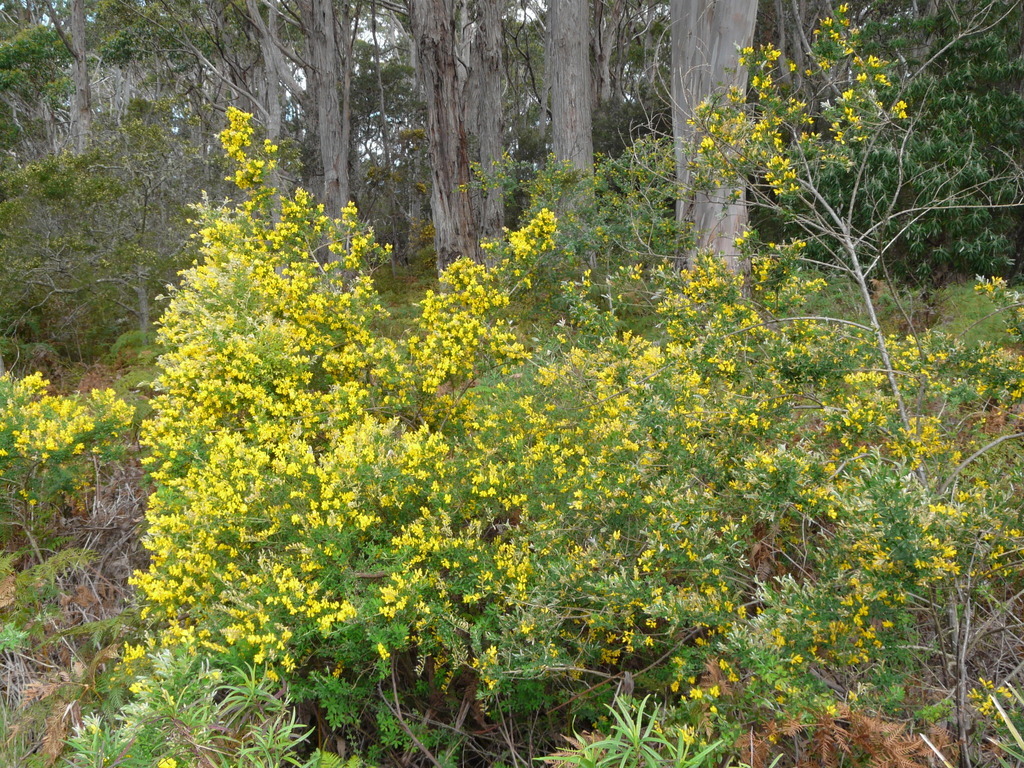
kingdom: Plantae
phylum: Tracheophyta
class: Magnoliopsida
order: Fabales
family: Fabaceae
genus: Genista
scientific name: Genista monspessulana
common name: Montpellier broom
